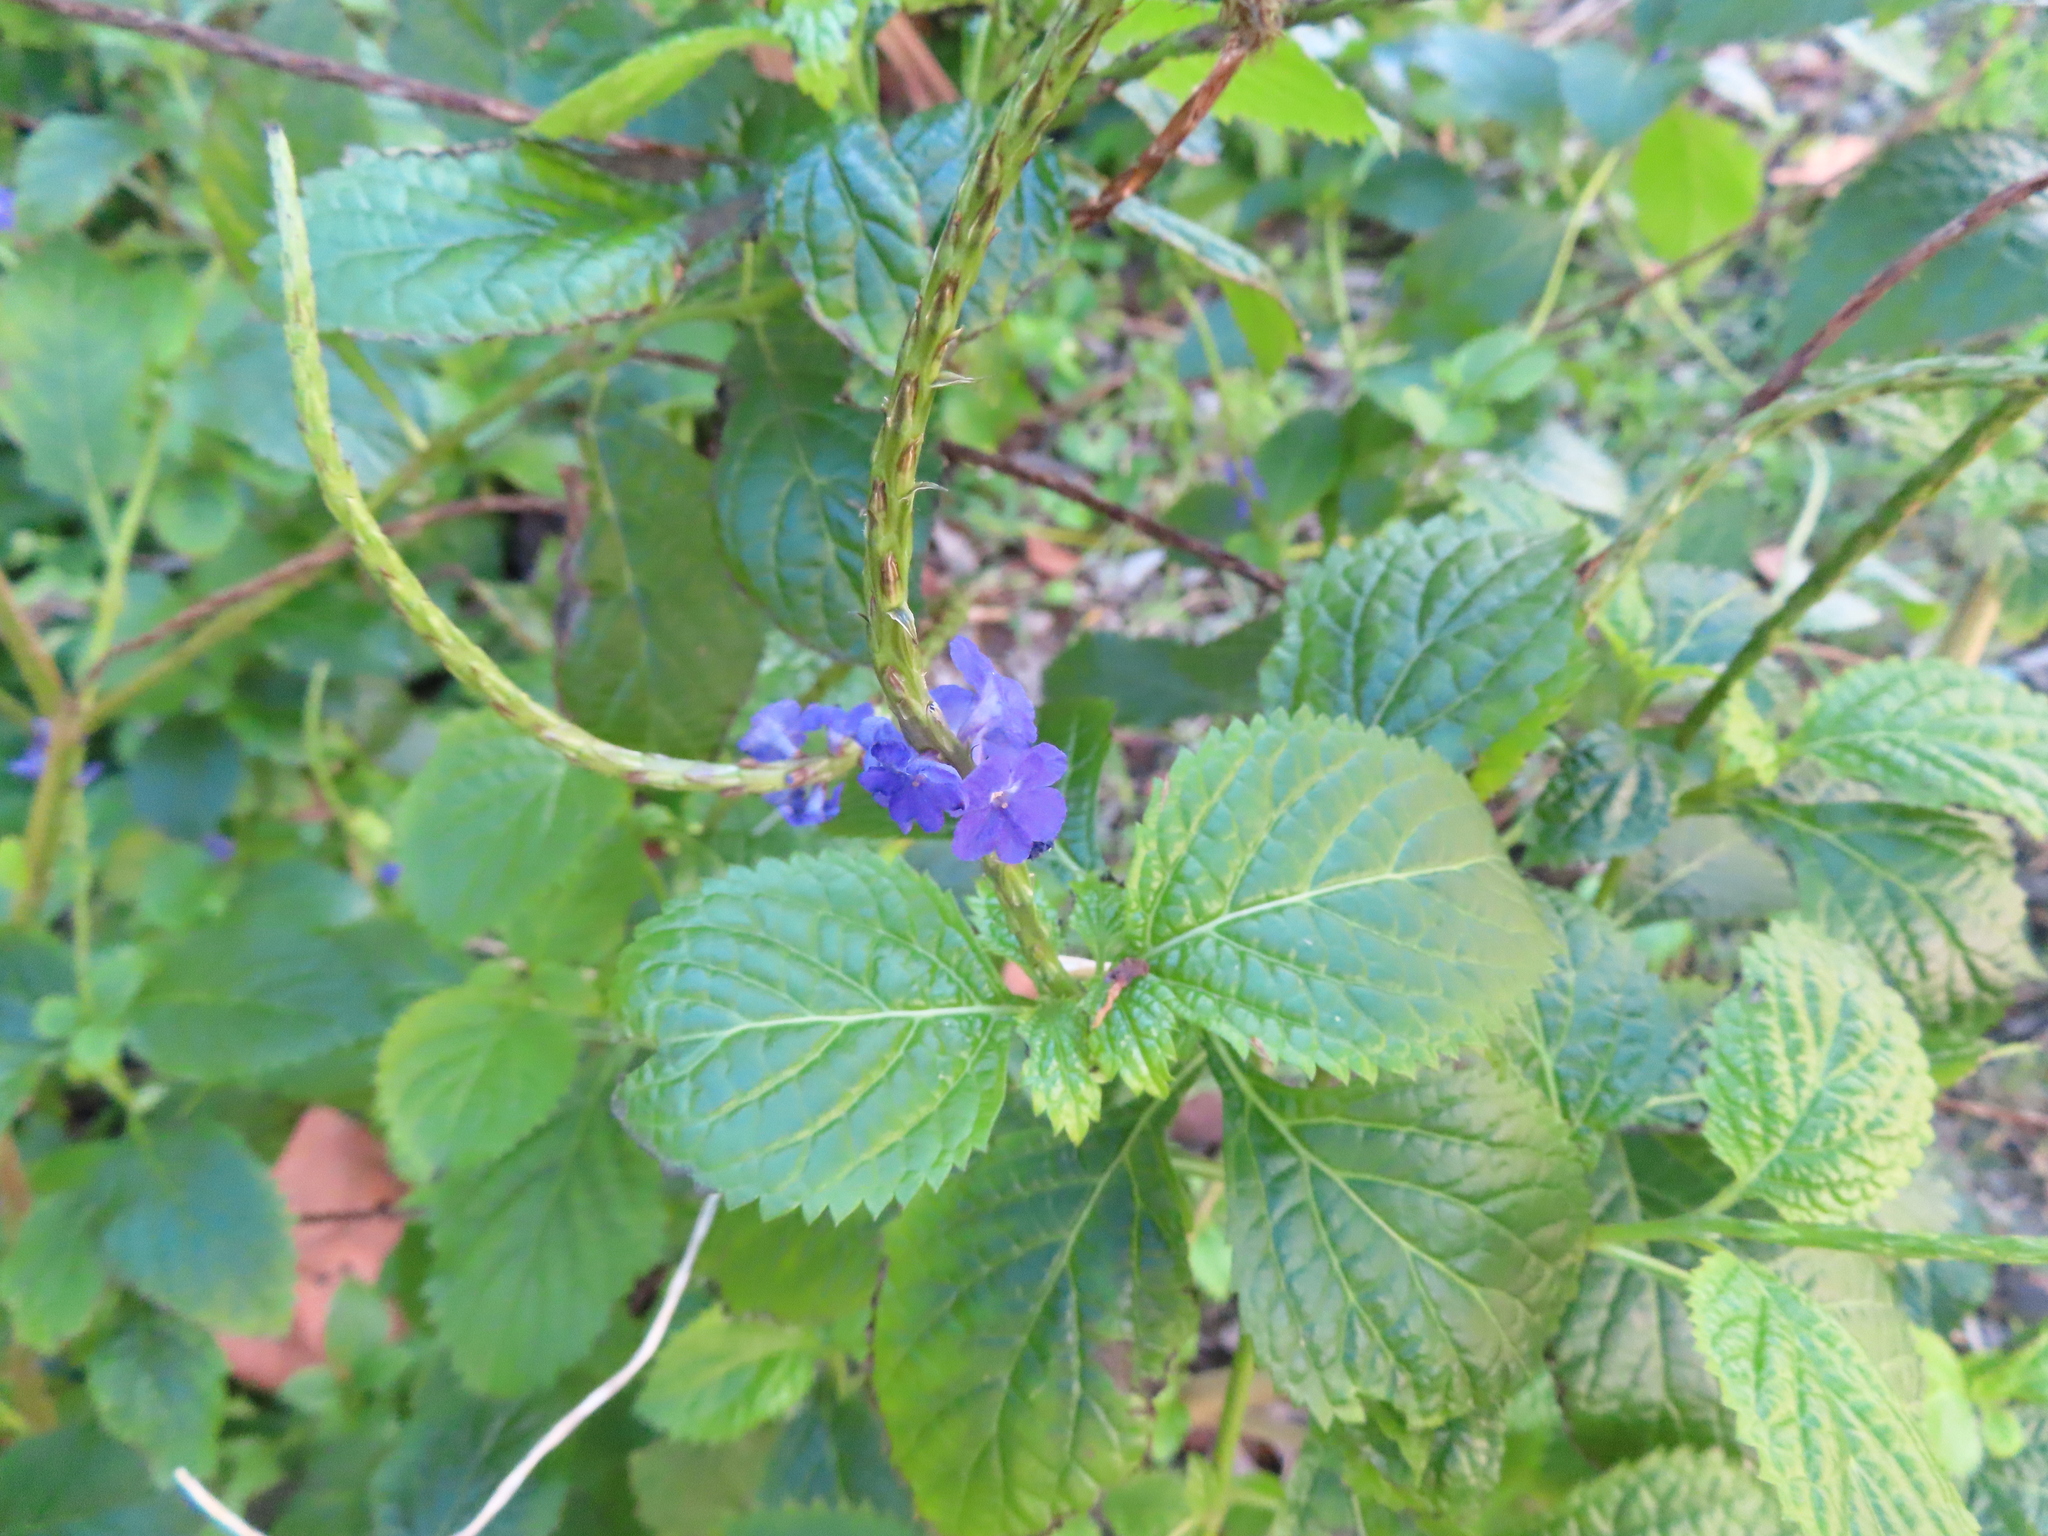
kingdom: Plantae
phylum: Tracheophyta
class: Magnoliopsida
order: Lamiales
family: Verbenaceae
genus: Stachytarpheta
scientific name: Stachytarpheta cayennensis
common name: Cayenne porterweed
